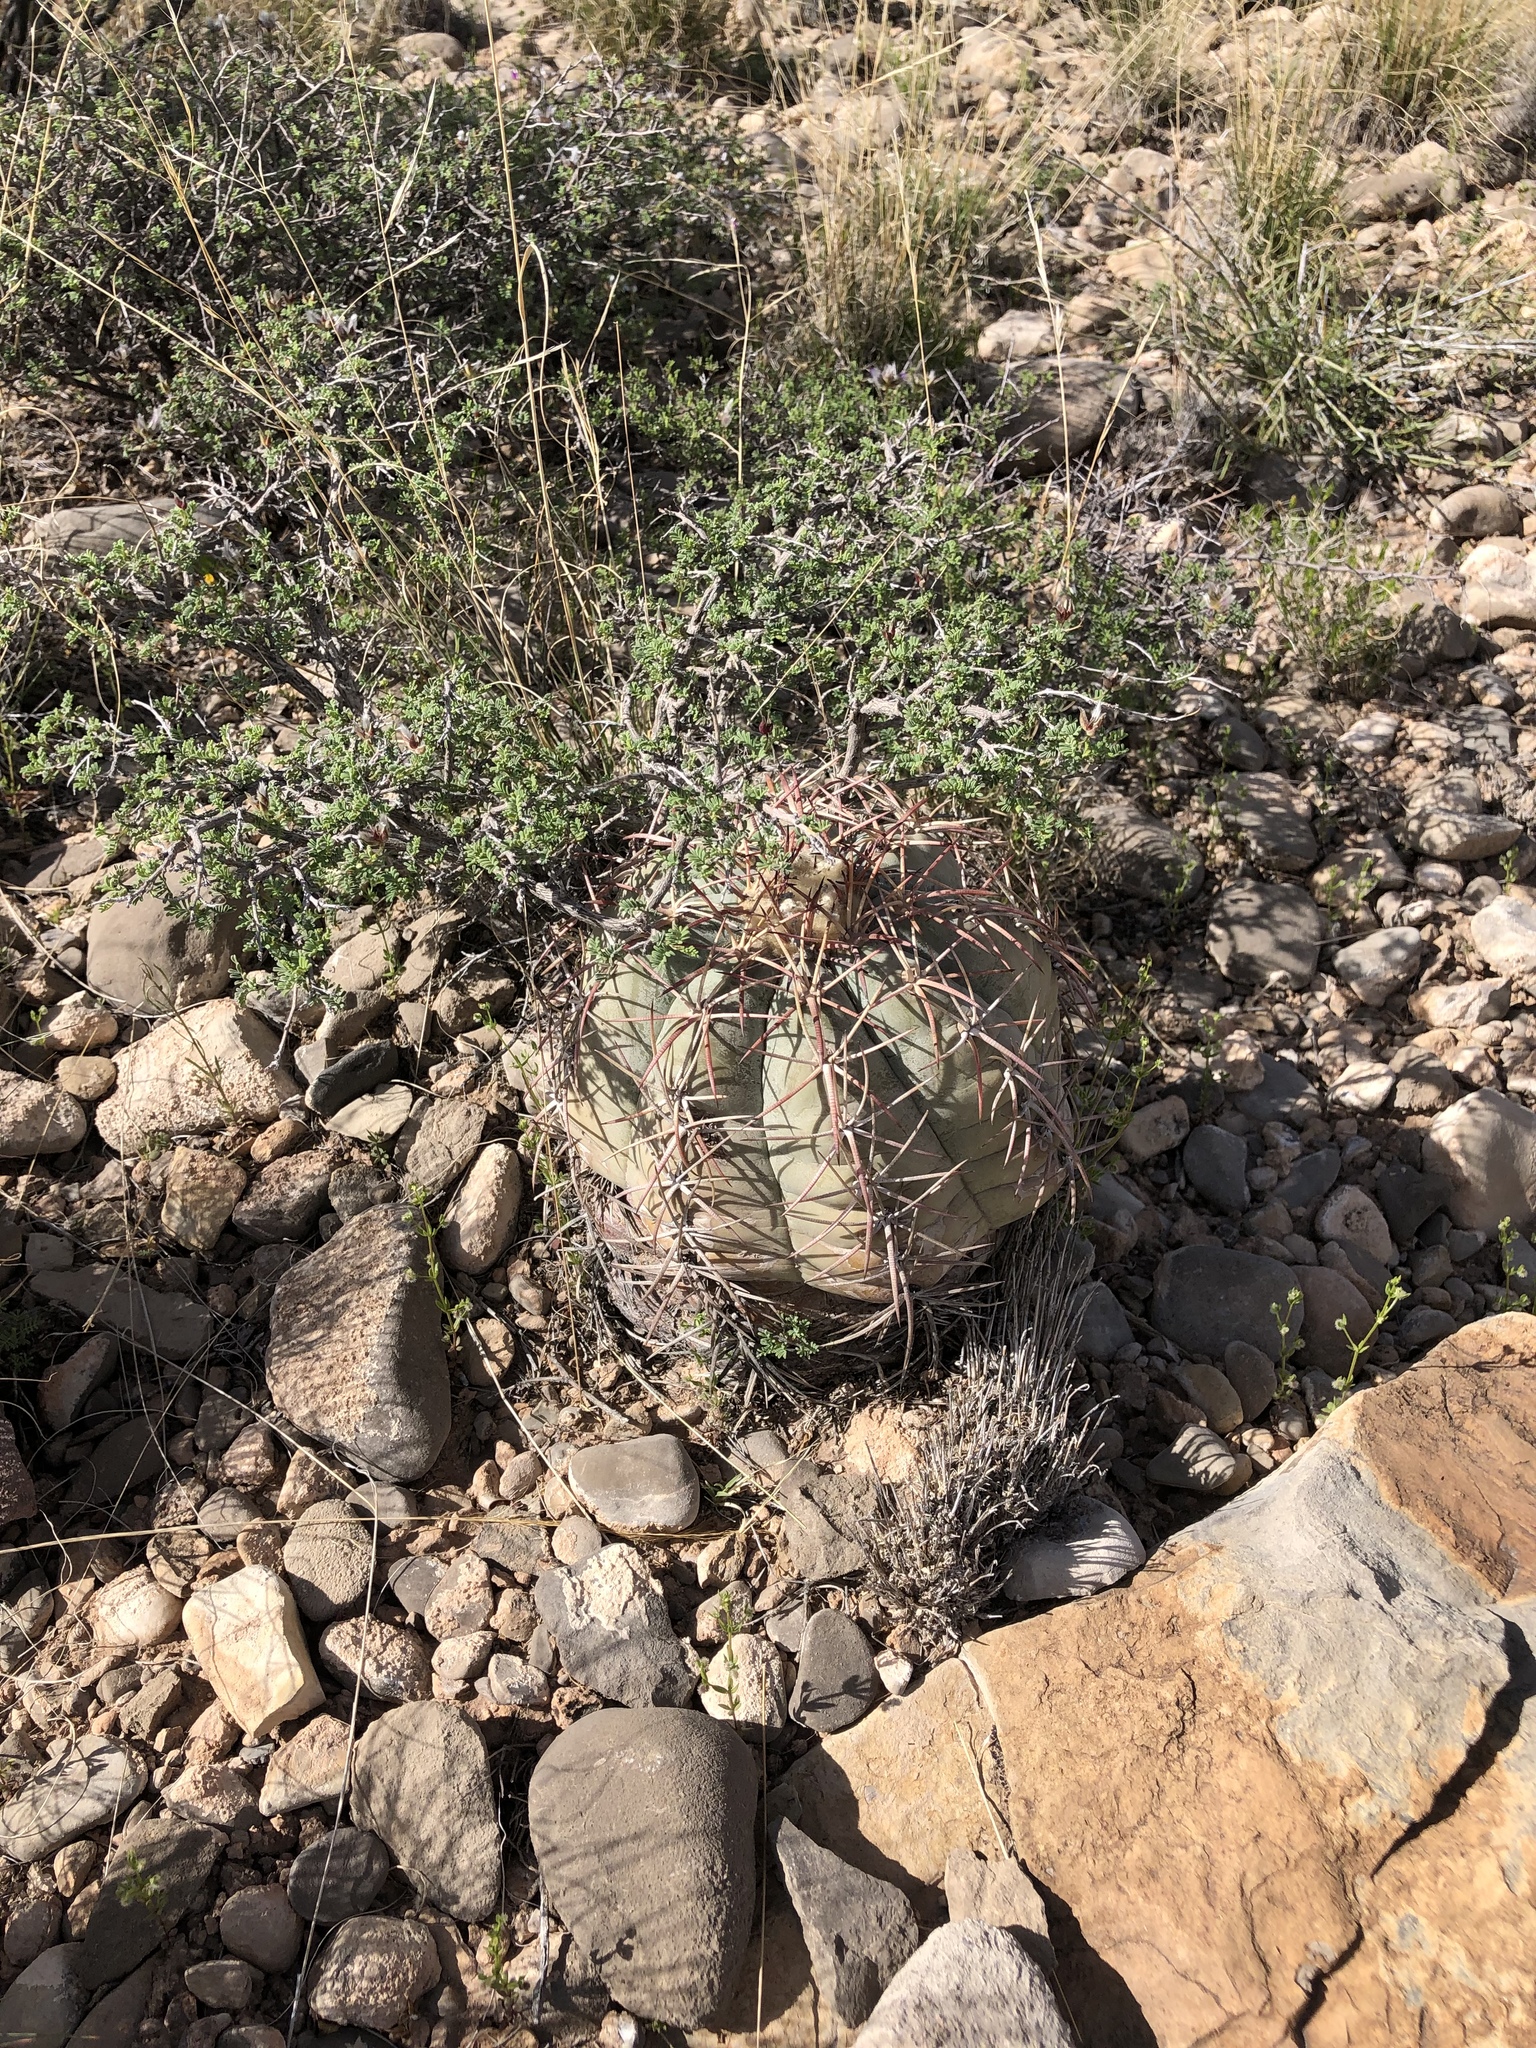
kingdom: Plantae
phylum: Tracheophyta
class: Magnoliopsida
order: Caryophyllales
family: Cactaceae
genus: Echinocactus
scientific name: Echinocactus horizonthalonius
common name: Devilshead
